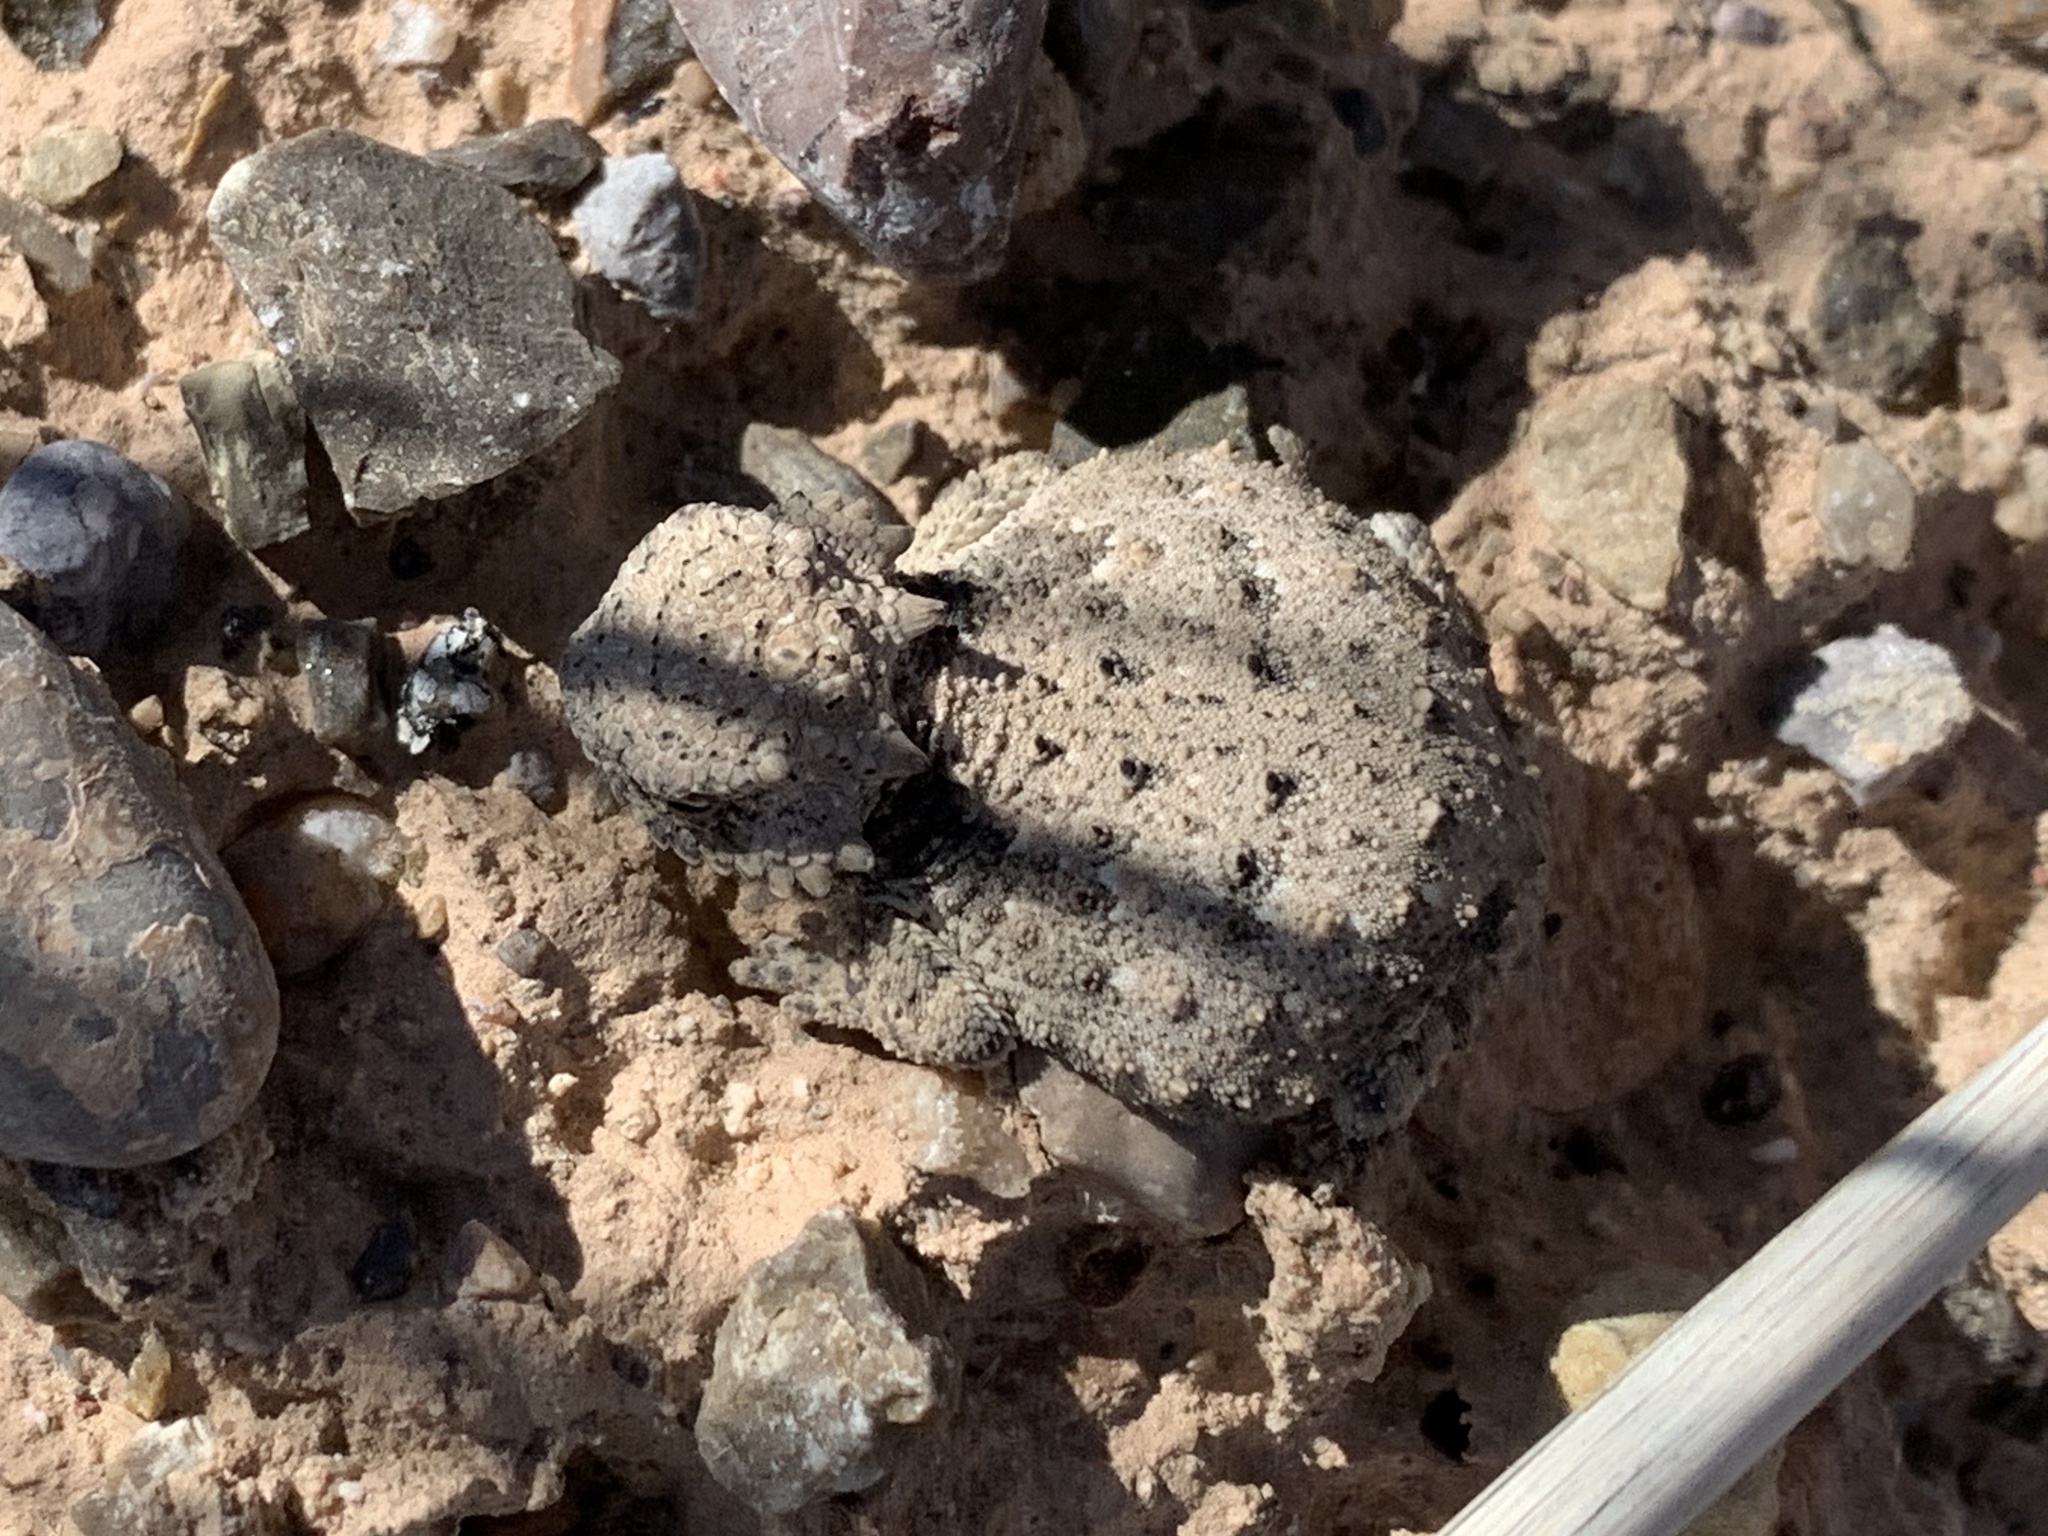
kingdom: Animalia
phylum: Chordata
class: Squamata
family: Phrynosomatidae
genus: Phrynosoma
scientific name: Phrynosoma modestum
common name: Roundtail horned lizard
